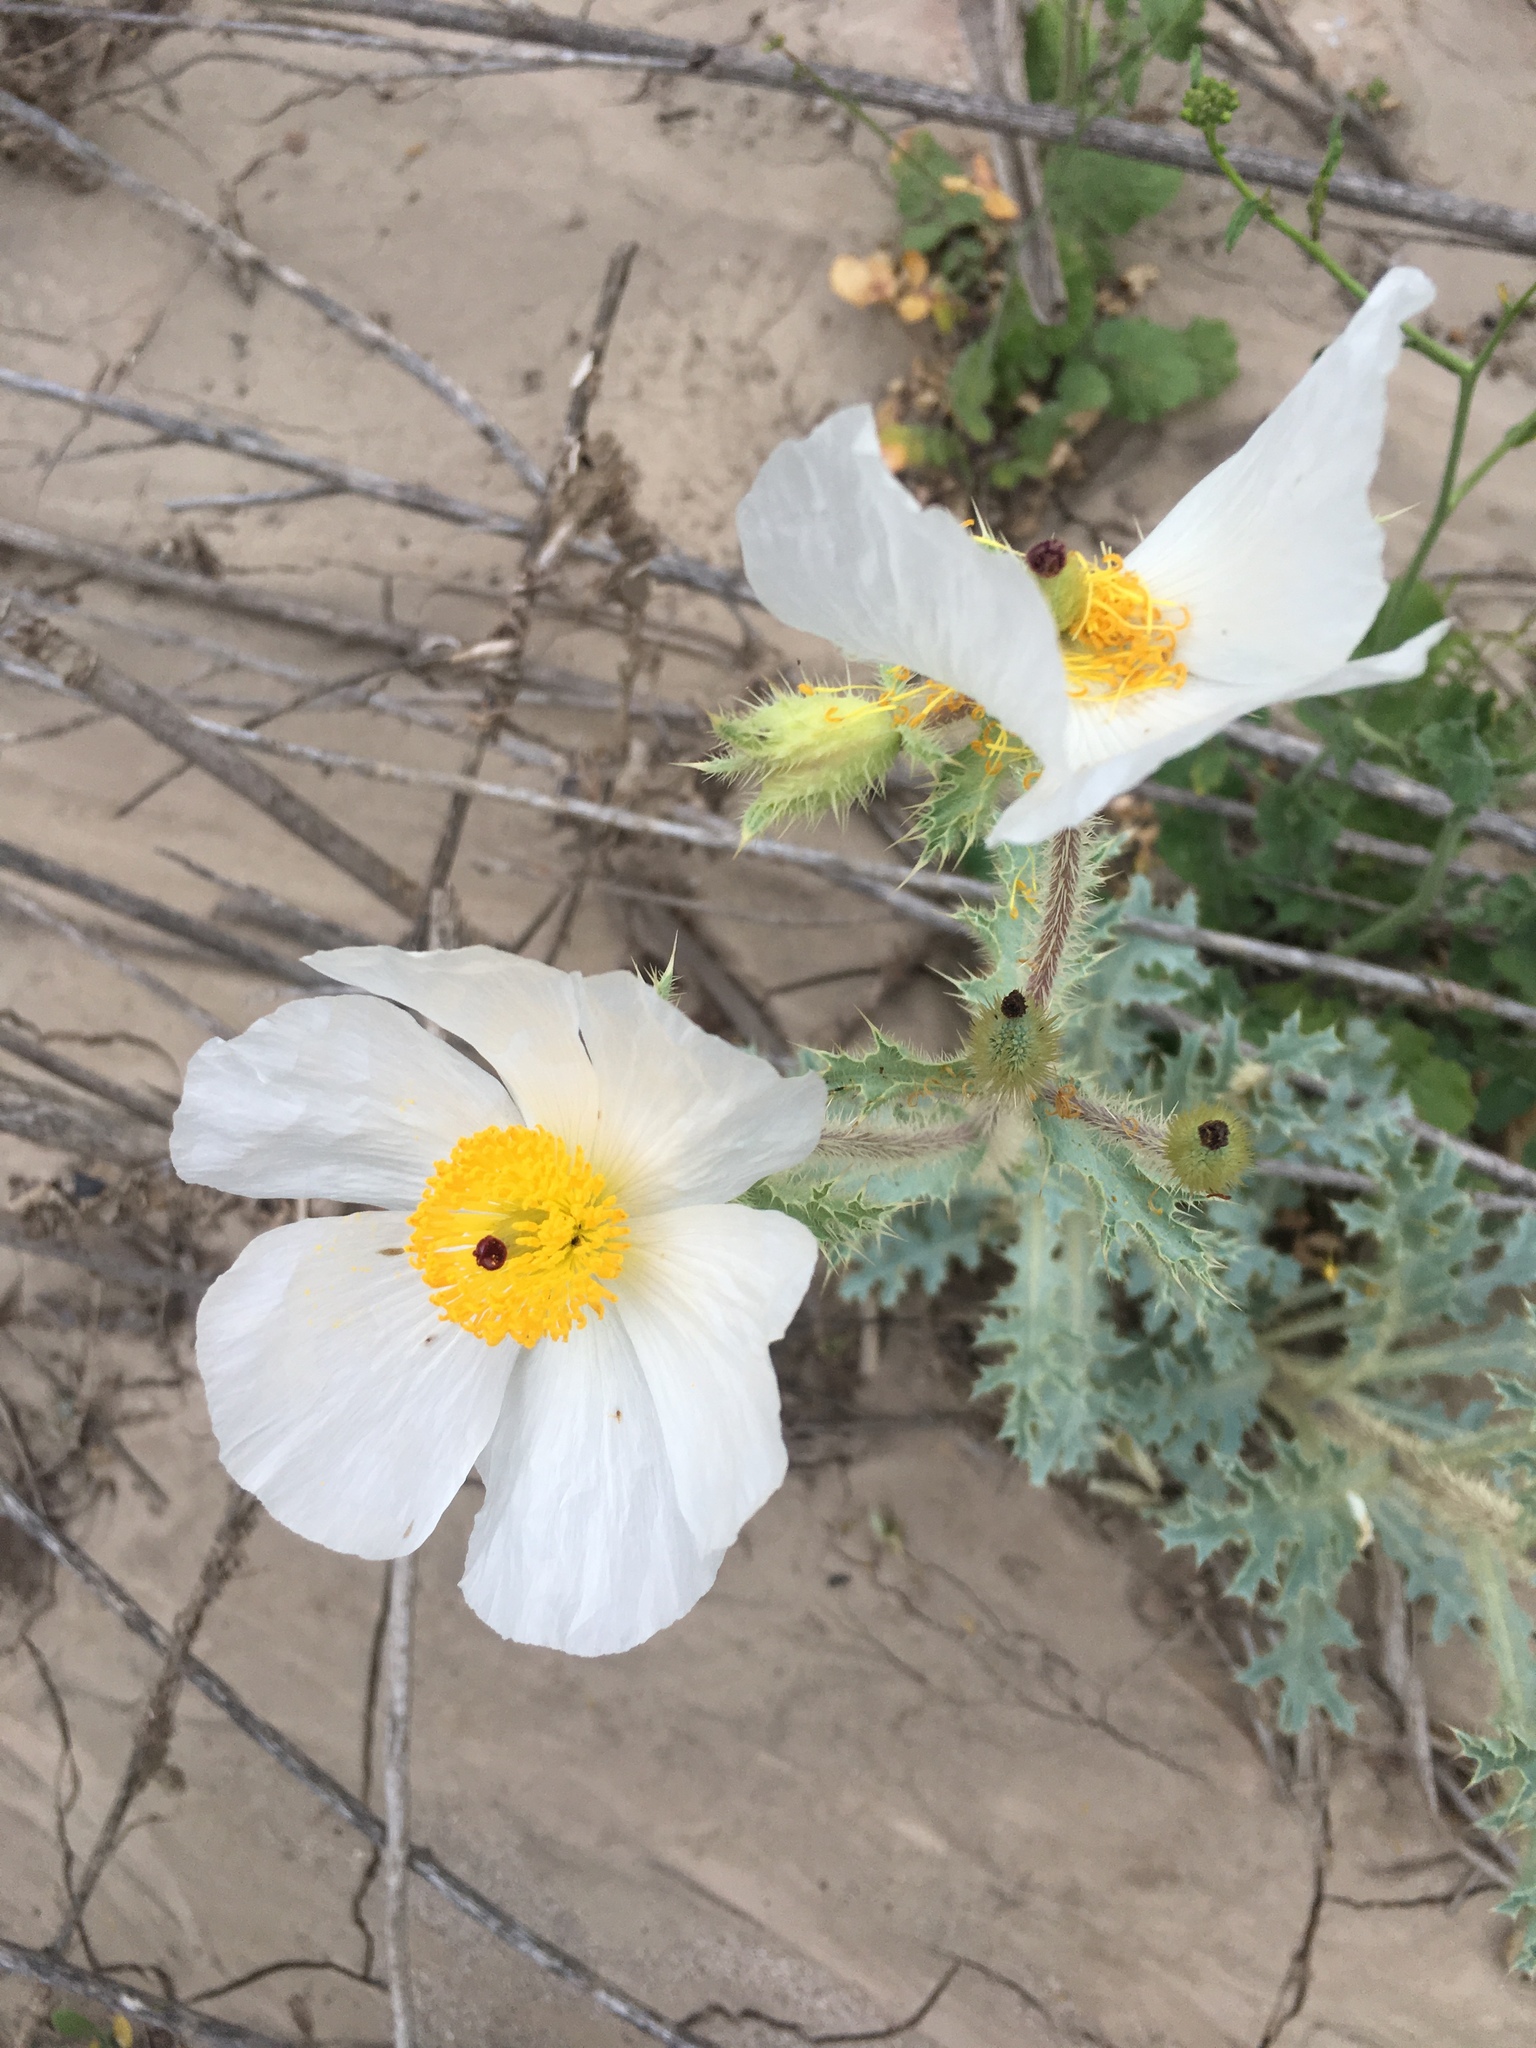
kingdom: Plantae
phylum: Tracheophyta
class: Magnoliopsida
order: Ranunculales
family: Papaveraceae
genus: Argemone
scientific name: Argemone munita
